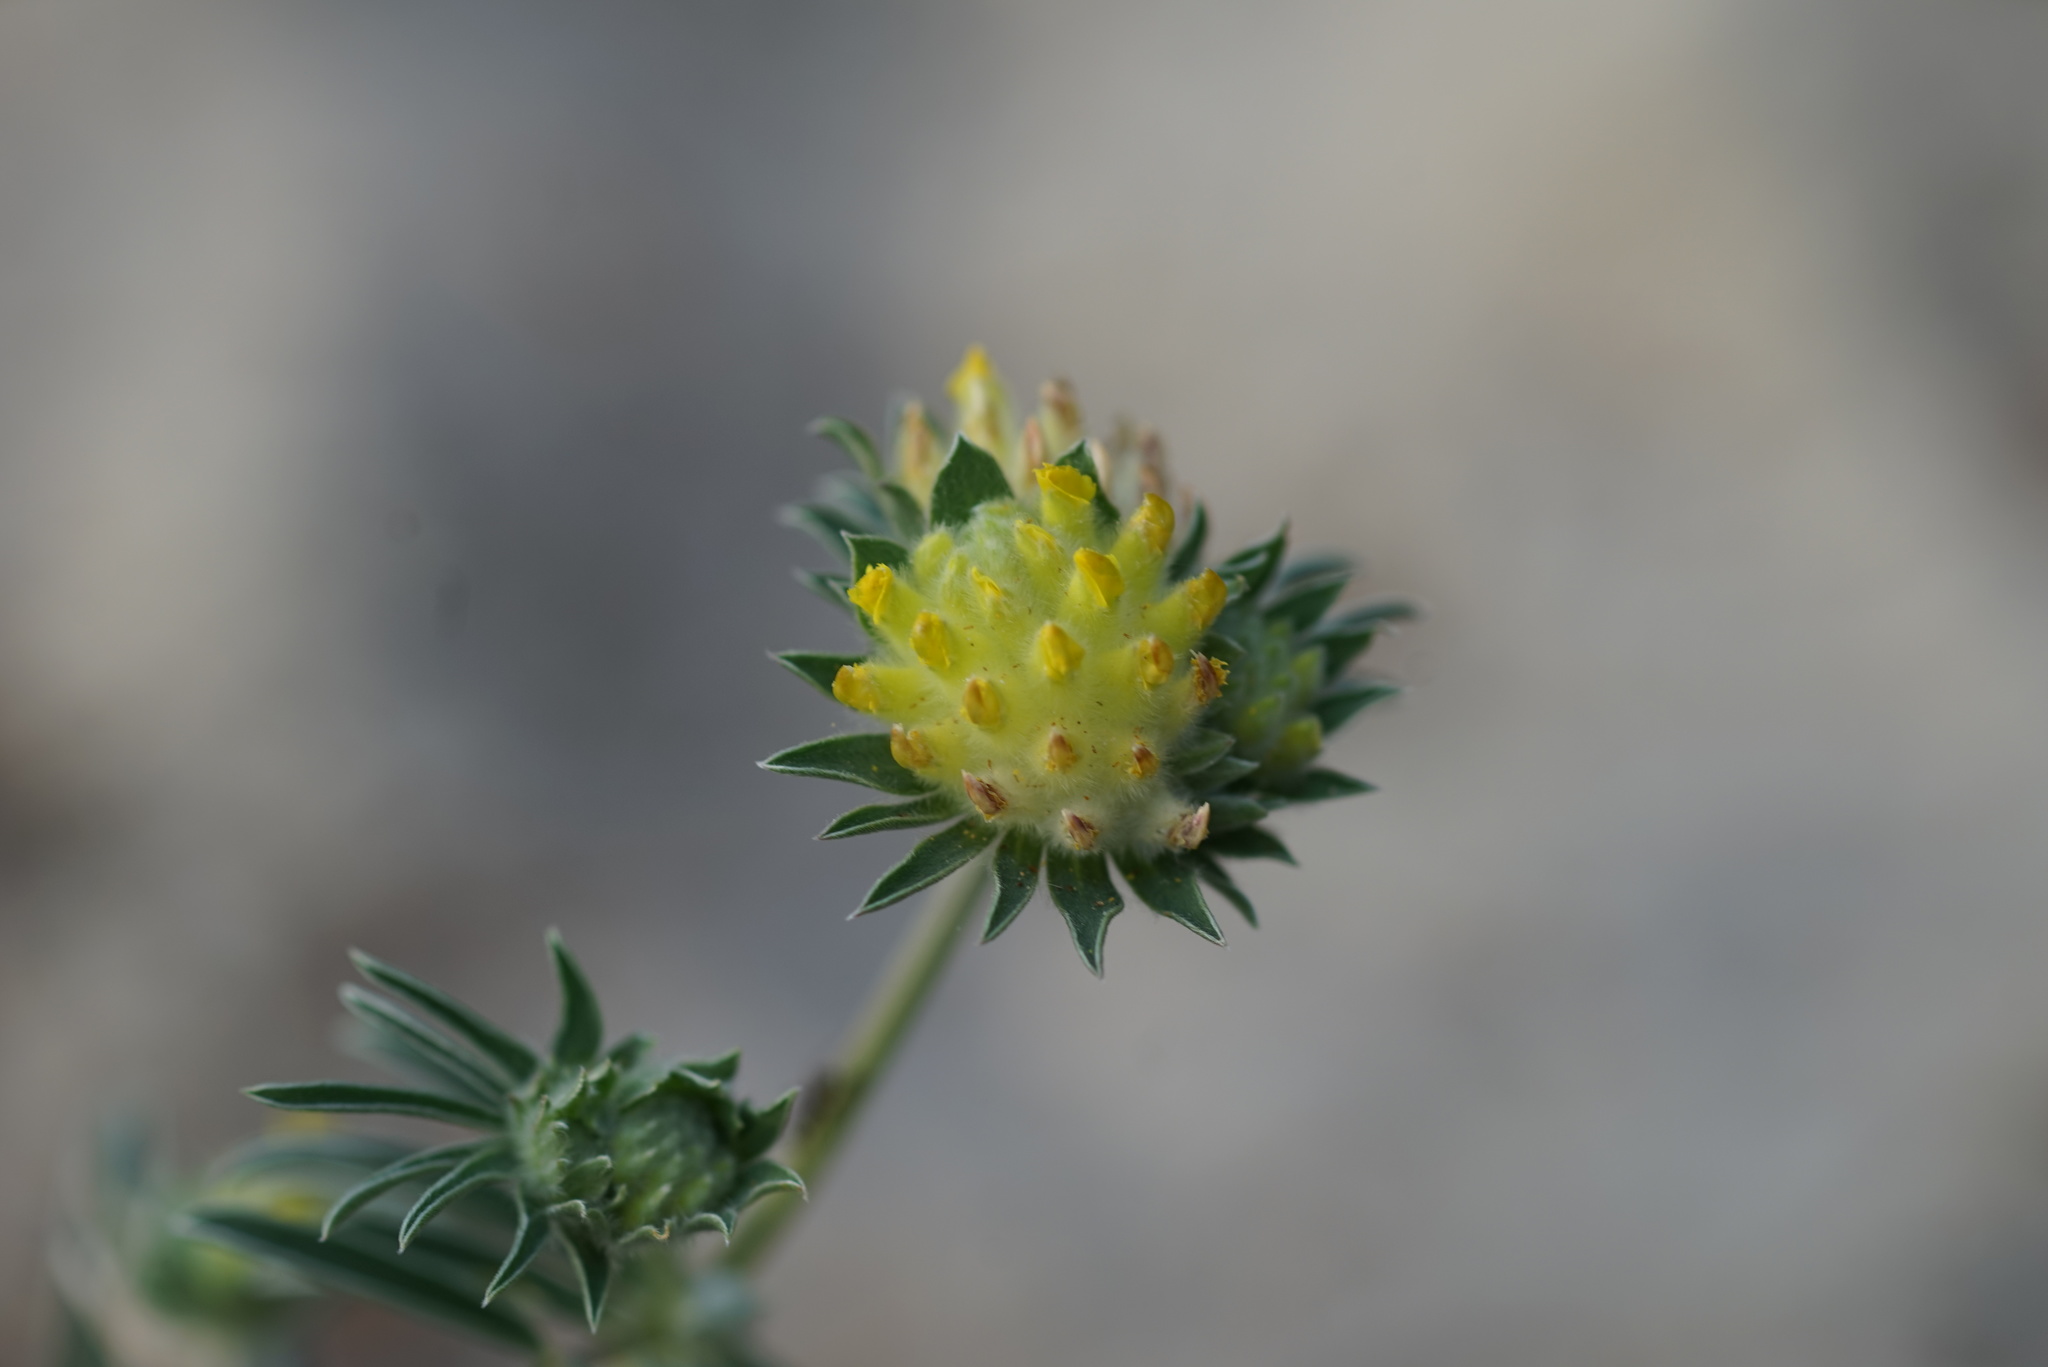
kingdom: Plantae
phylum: Tracheophyta
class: Magnoliopsida
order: Fabales
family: Fabaceae
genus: Anthyllis
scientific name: Anthyllis vulneraria
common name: Kidney vetch
